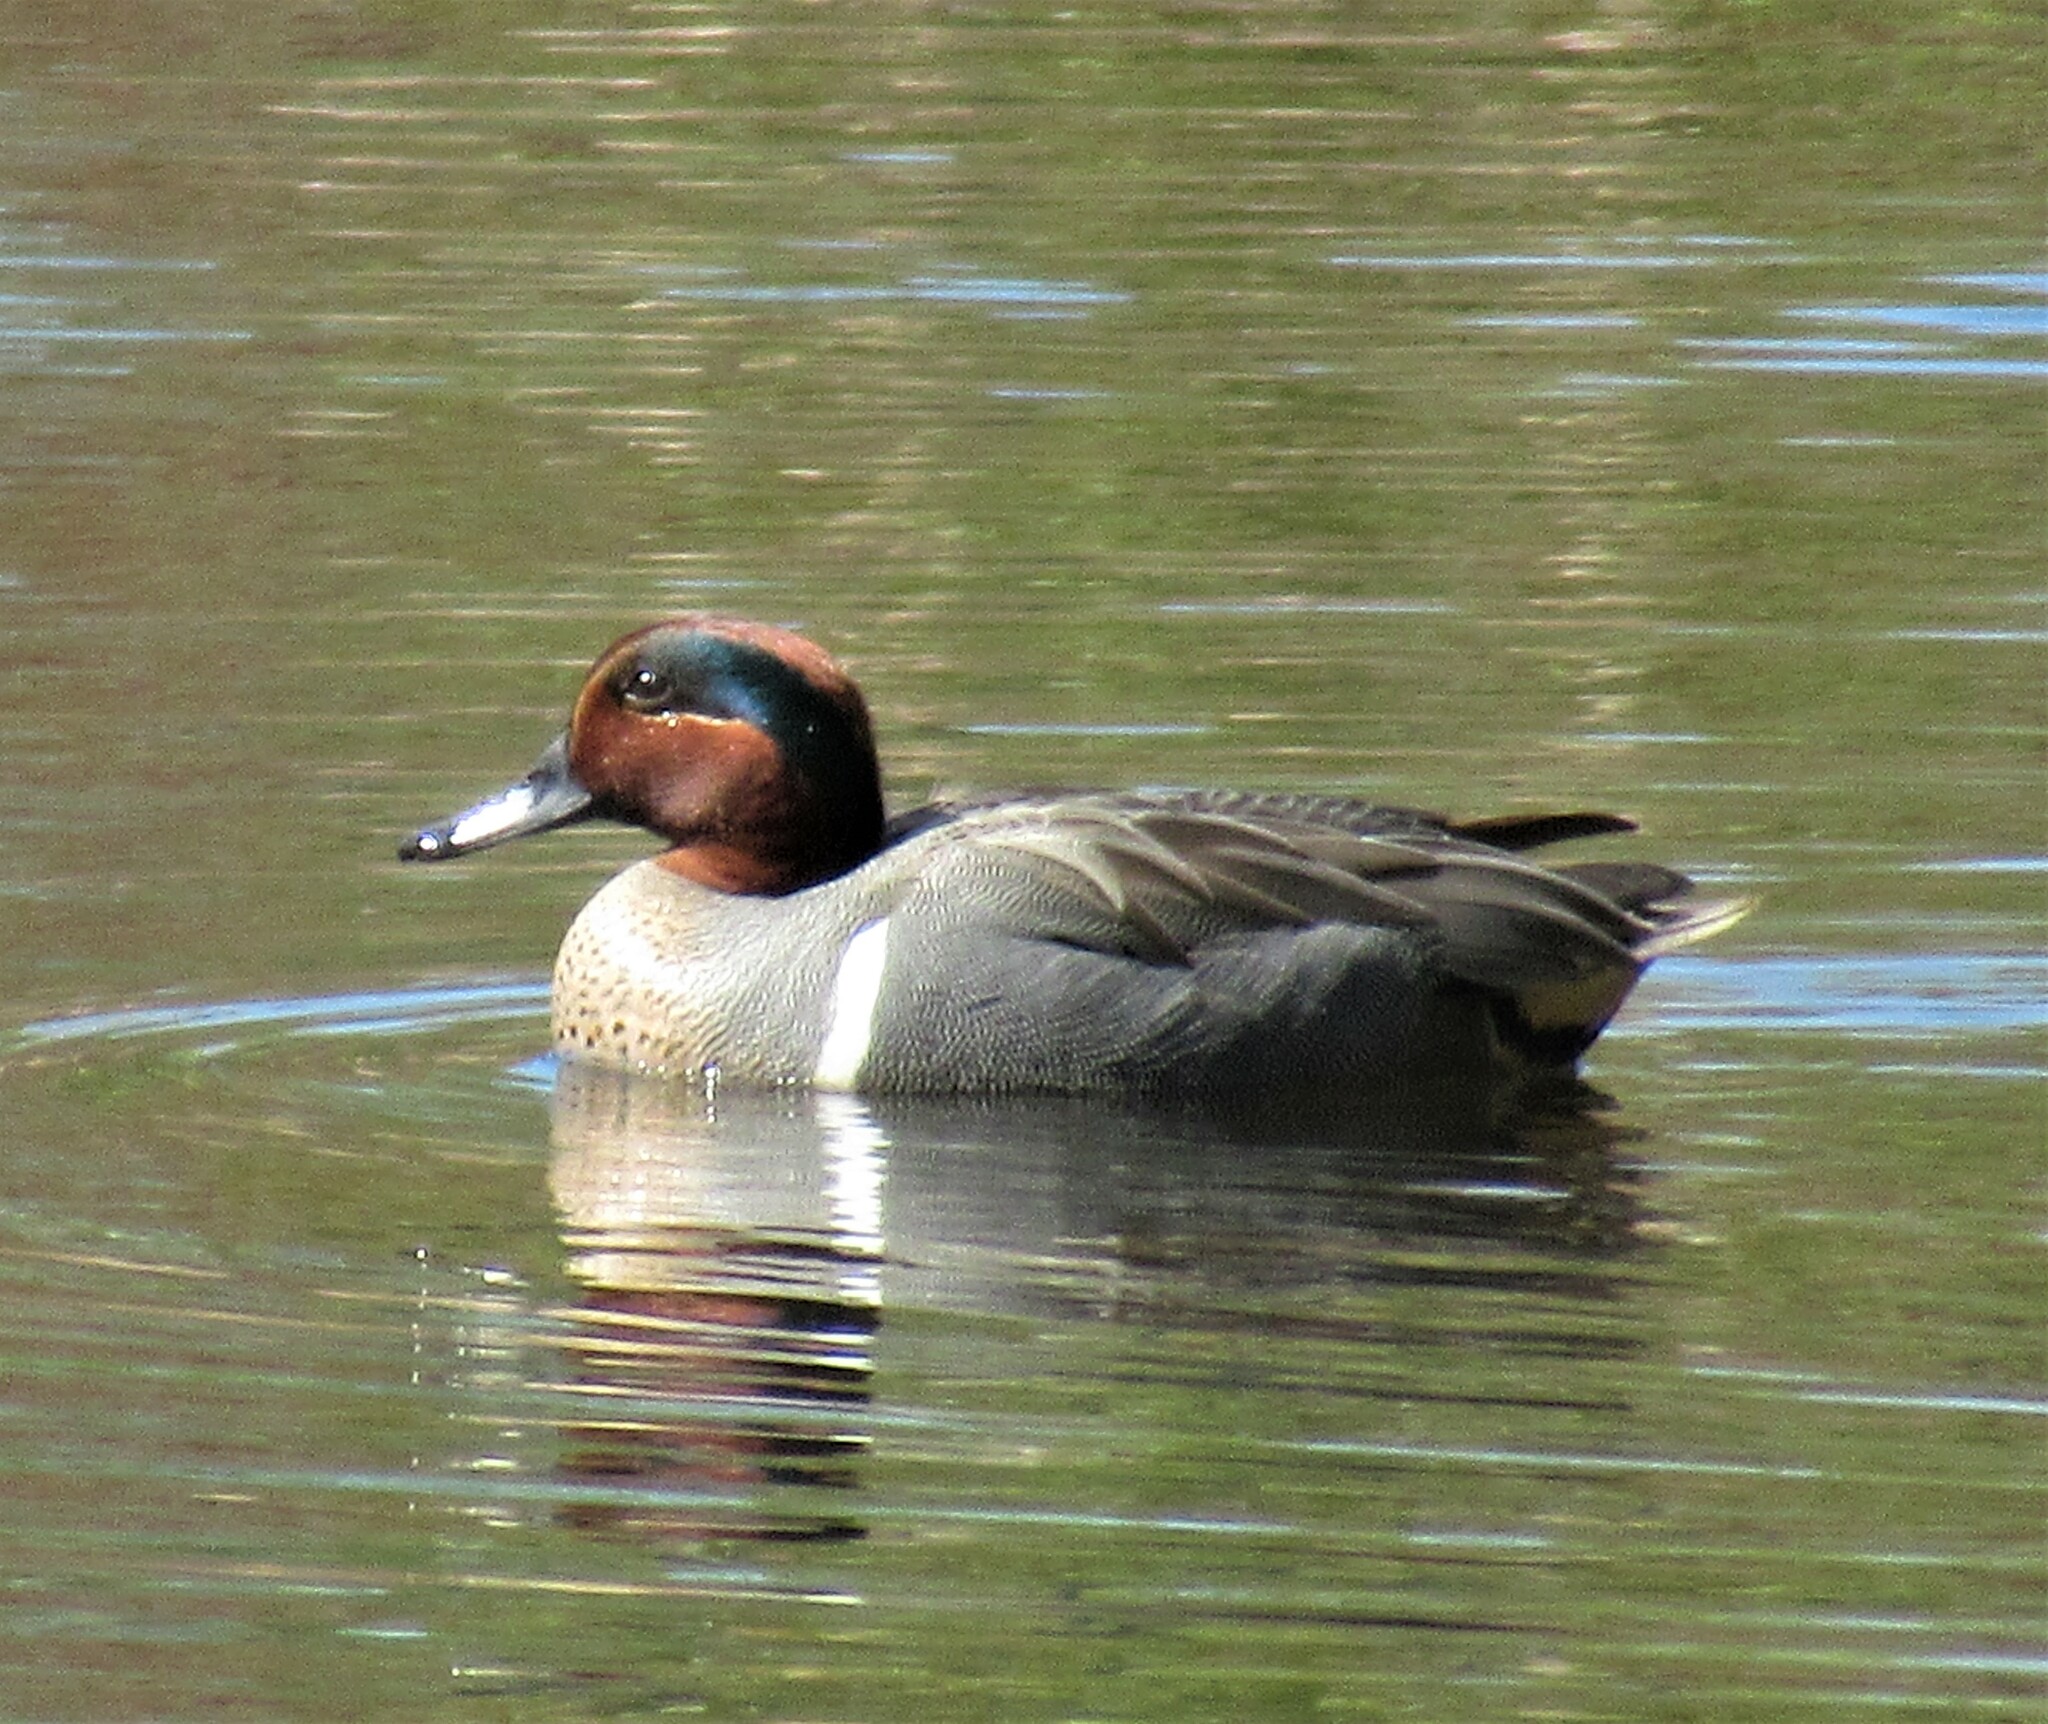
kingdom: Animalia
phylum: Chordata
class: Aves
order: Anseriformes
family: Anatidae
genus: Anas
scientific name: Anas crecca
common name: Eurasian teal
